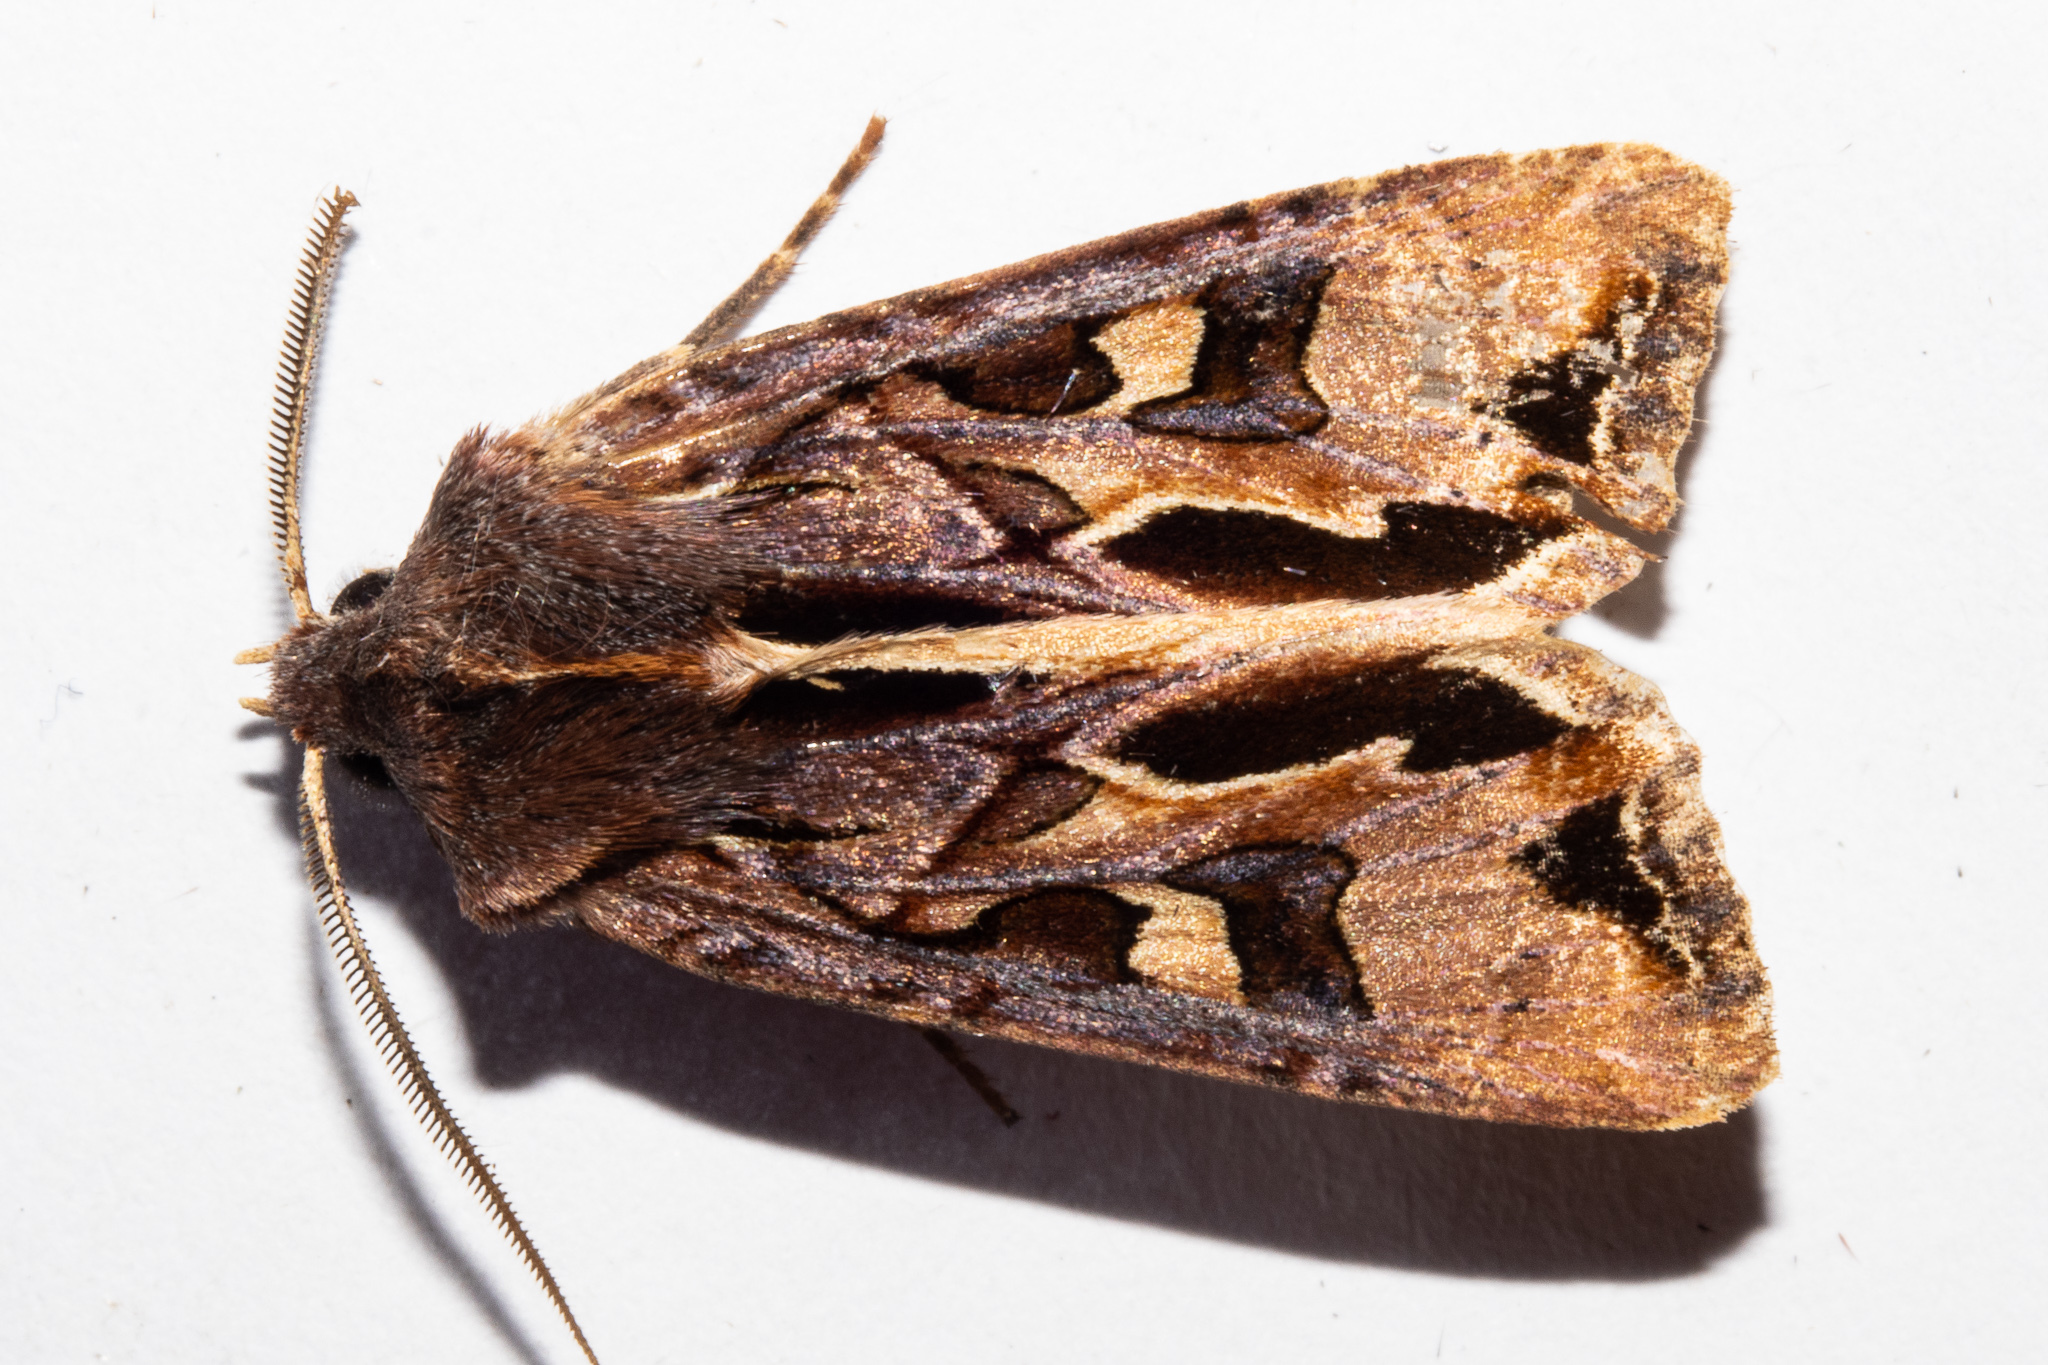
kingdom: Animalia
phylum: Arthropoda
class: Insecta
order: Lepidoptera
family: Noctuidae
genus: Ichneutica
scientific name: Ichneutica
